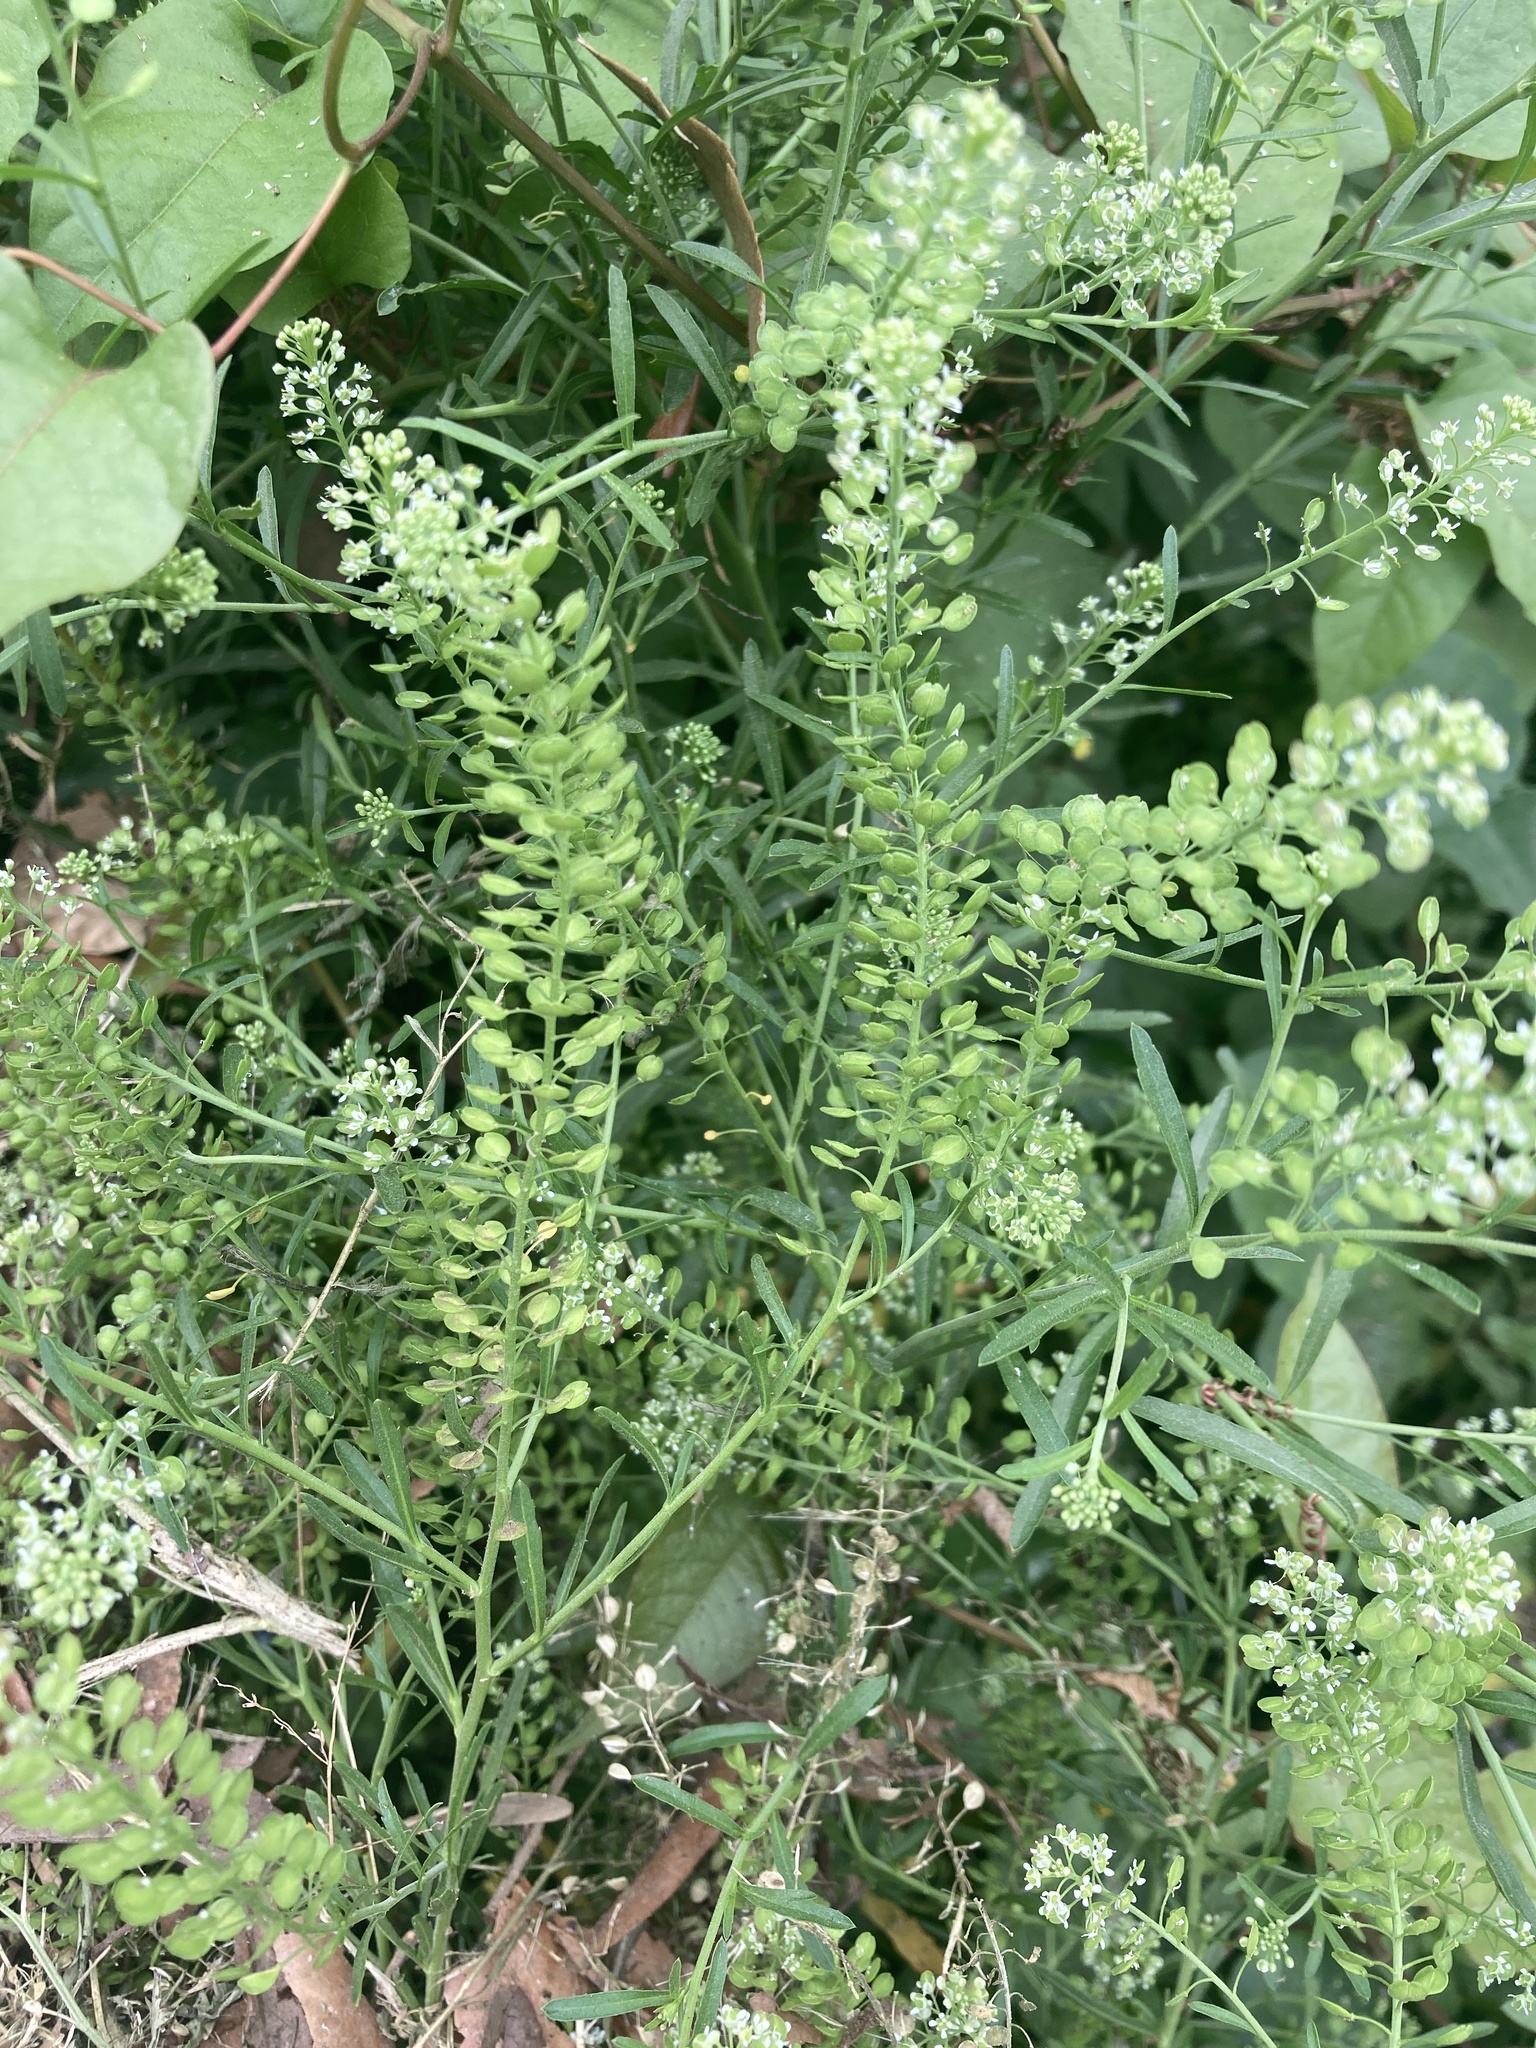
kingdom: Plantae
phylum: Tracheophyta
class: Magnoliopsida
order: Brassicales
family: Brassicaceae
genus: Lepidium
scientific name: Lepidium virginicum
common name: Least pepperwort
